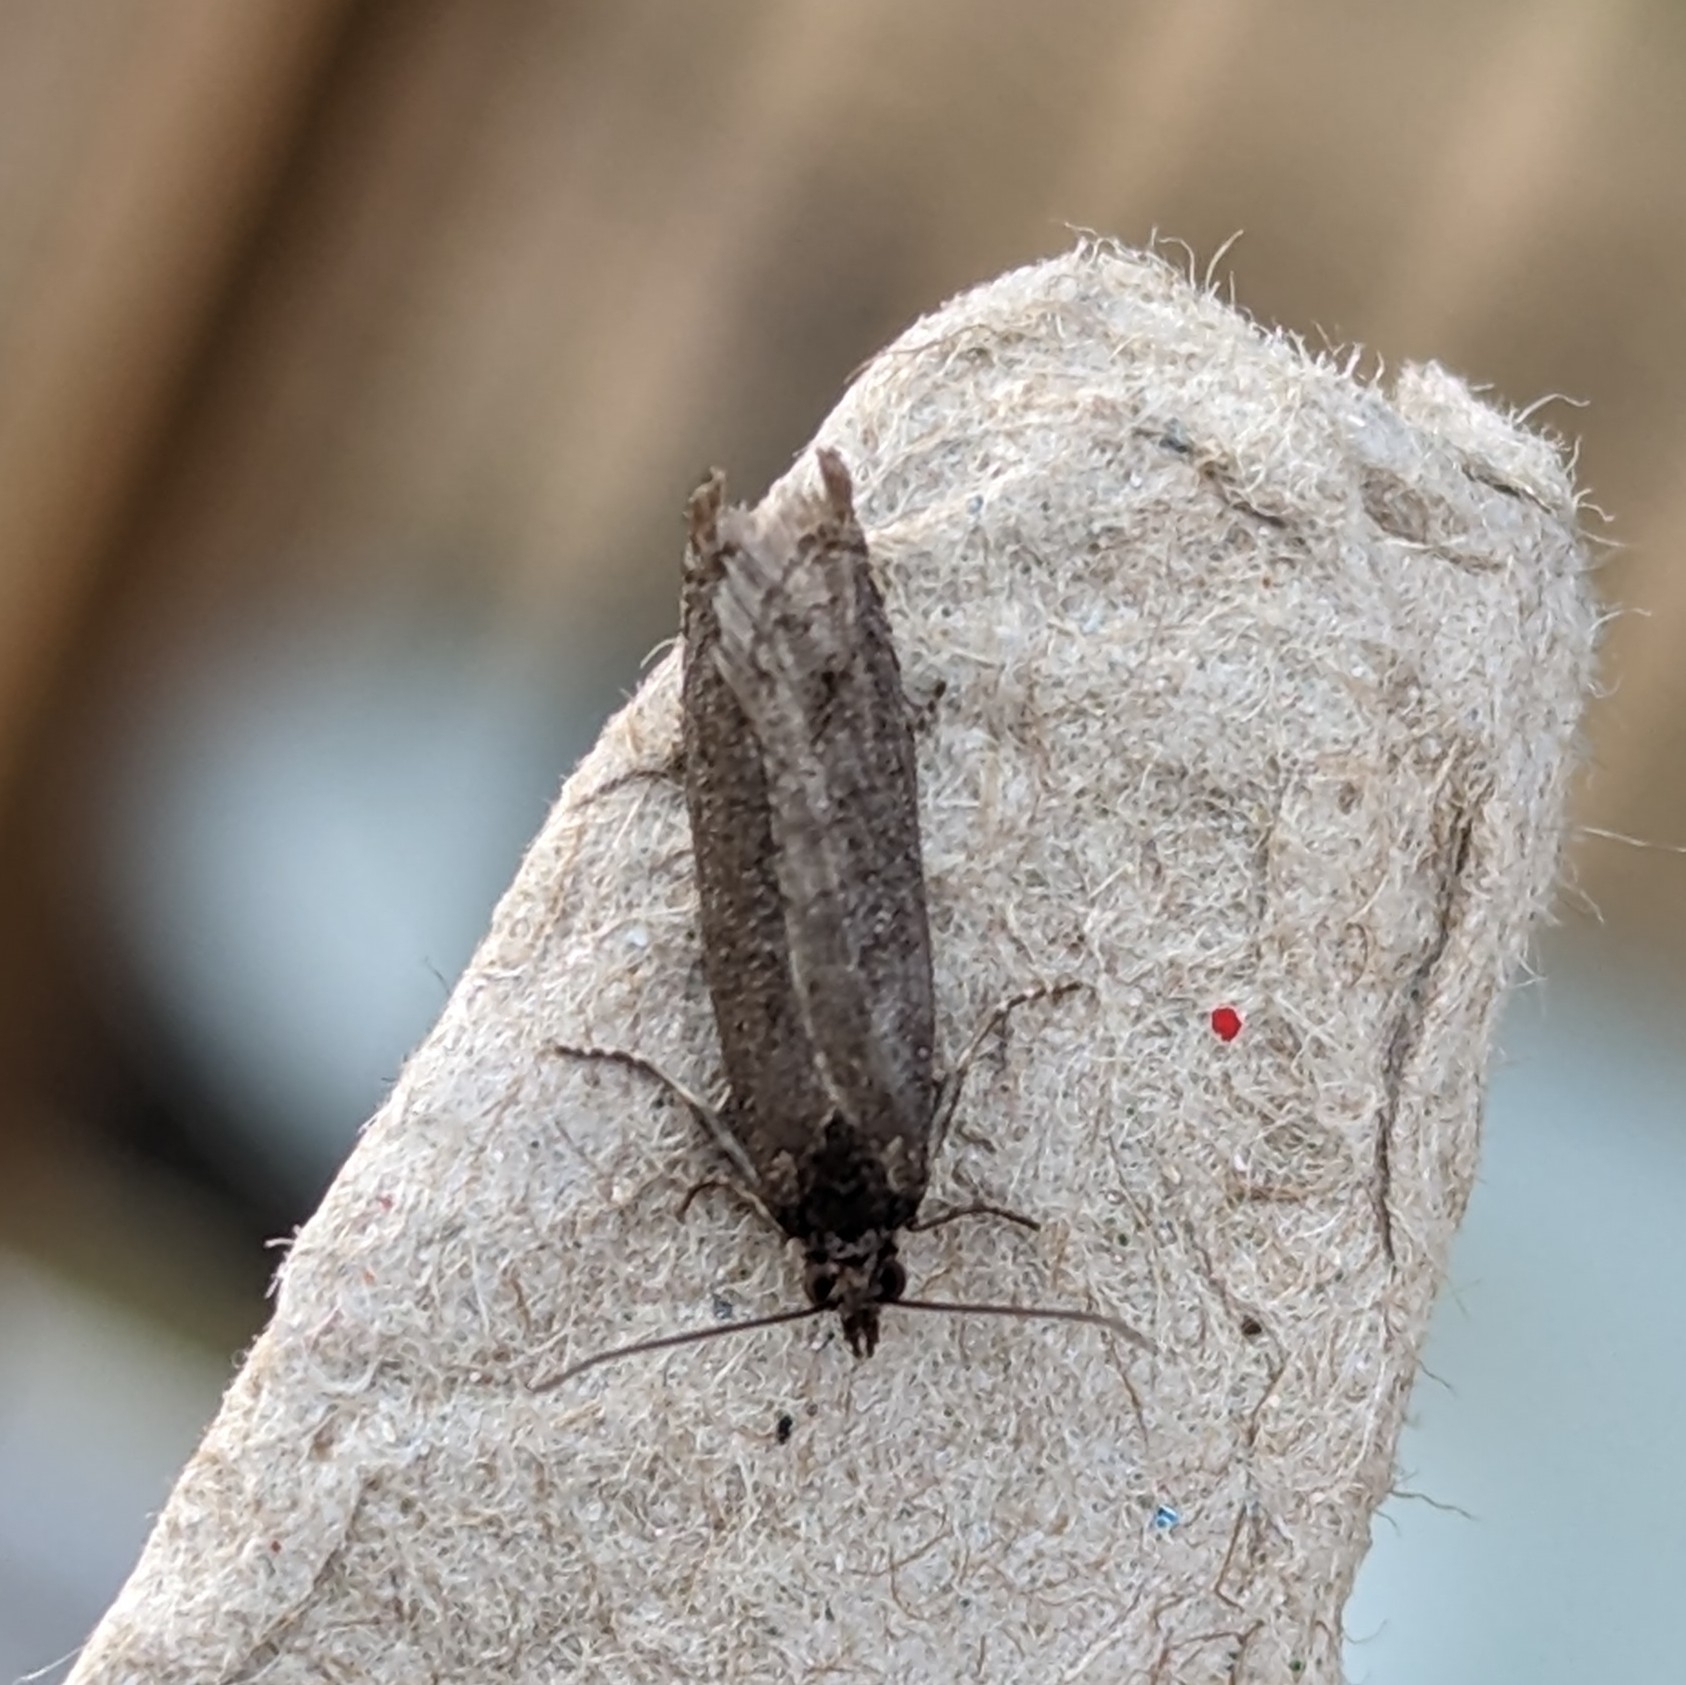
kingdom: Animalia
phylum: Arthropoda
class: Insecta
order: Lepidoptera
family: Tortricidae
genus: Pseudexentera
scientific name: Pseudexentera oregonana
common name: Early aspen leafcurler
